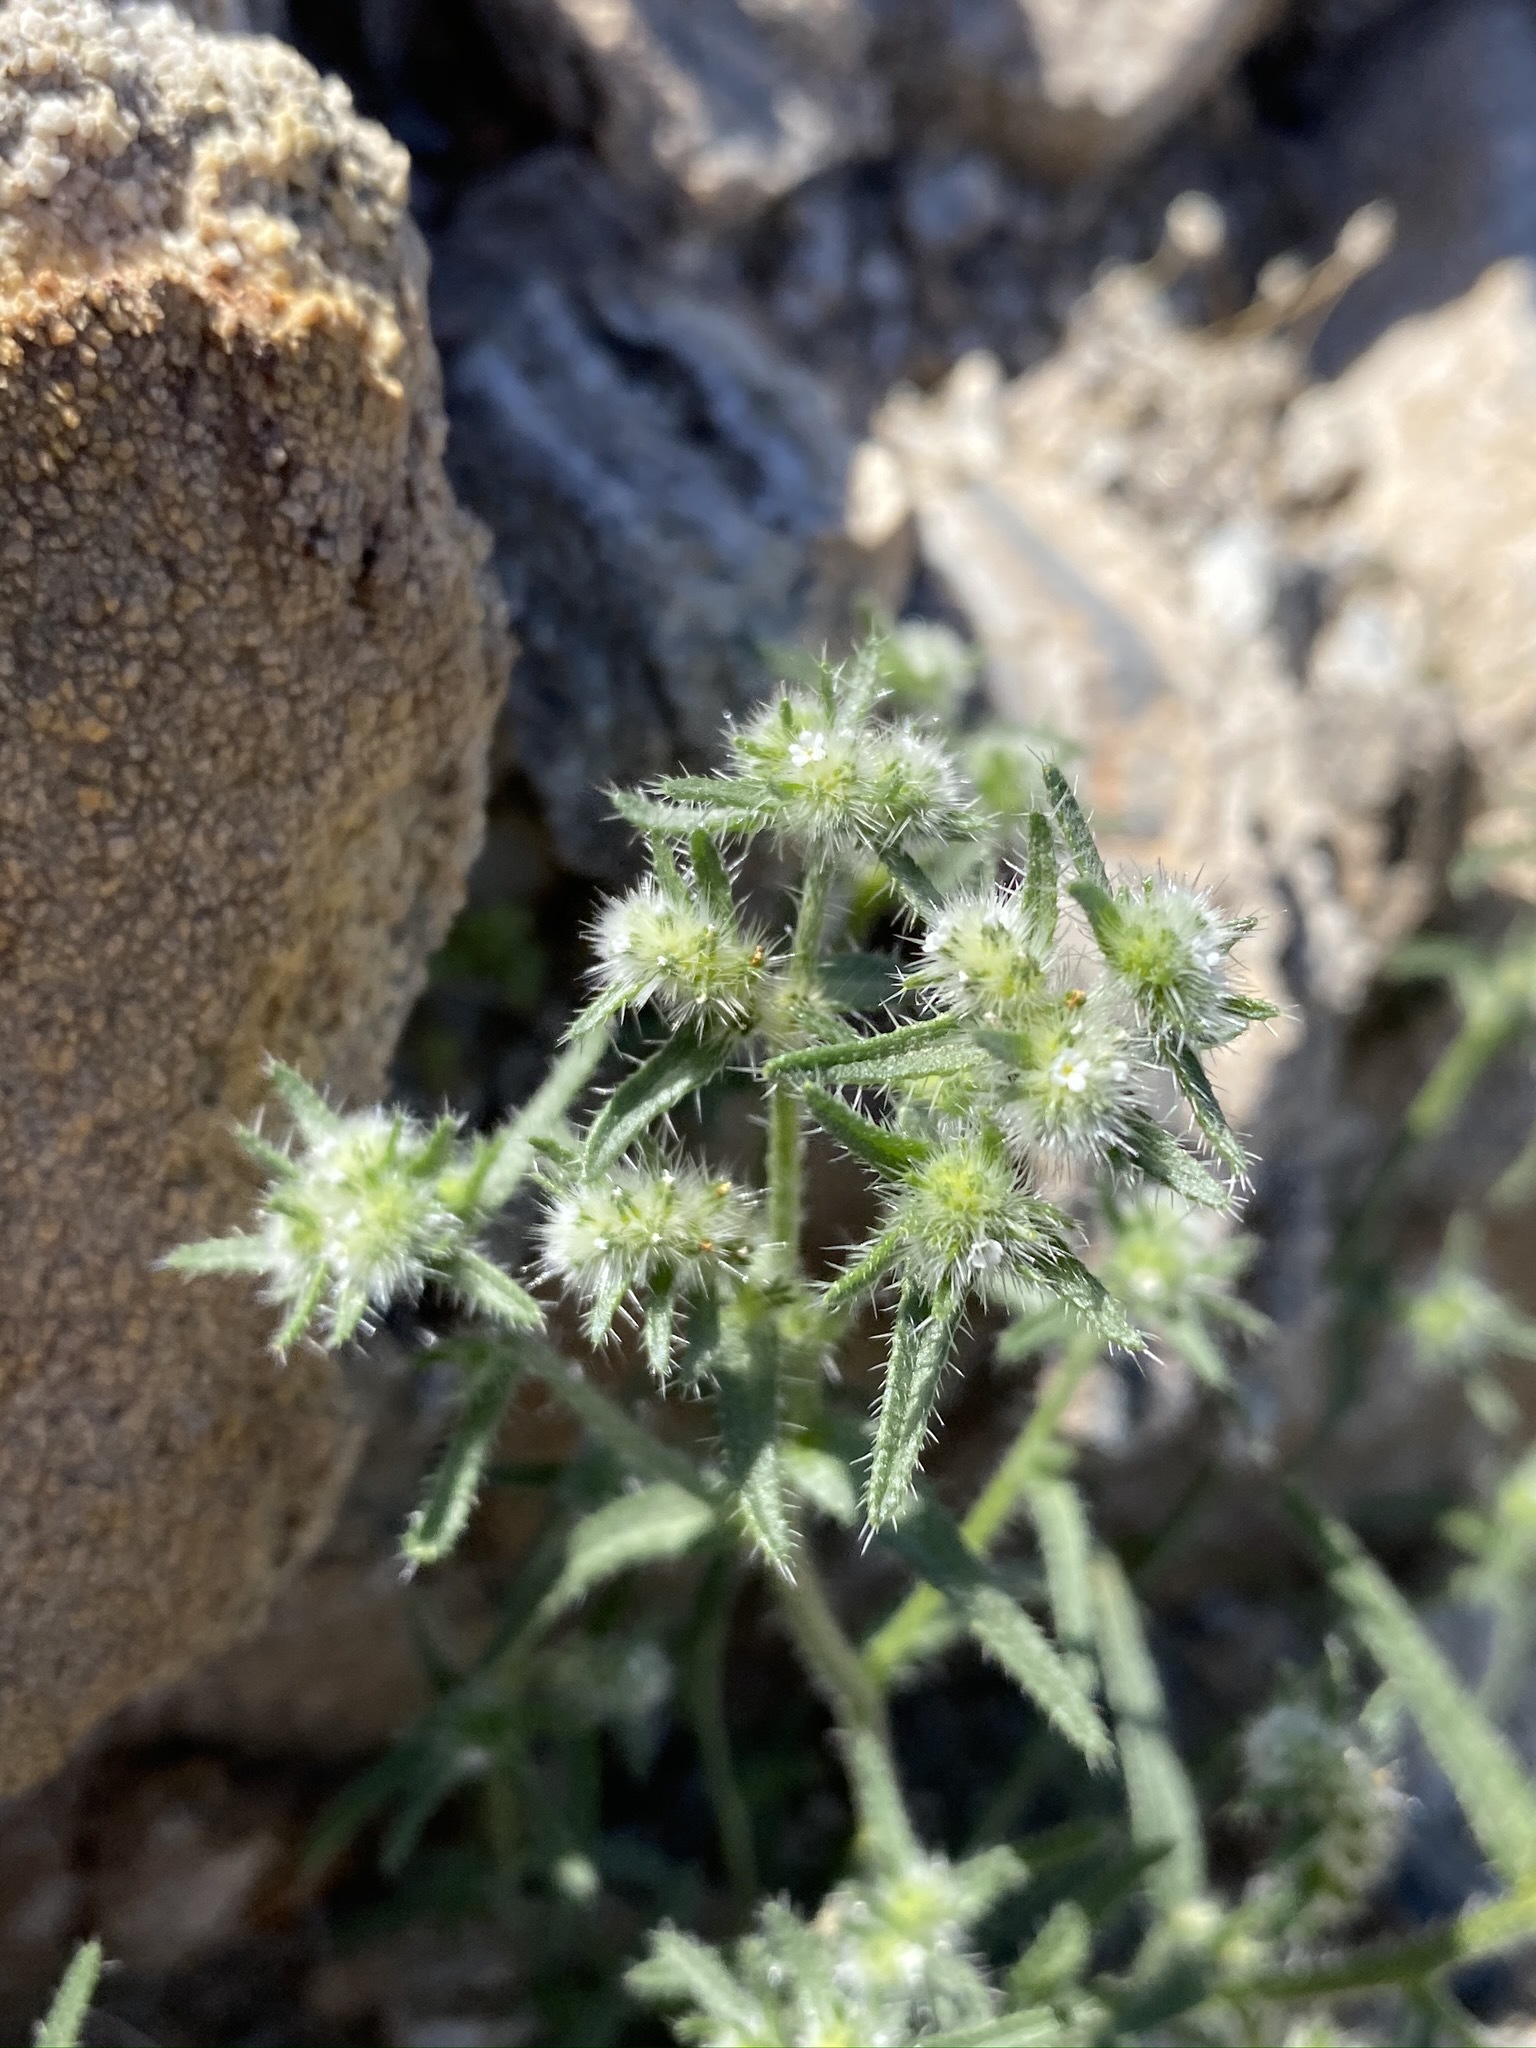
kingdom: Plantae
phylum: Tracheophyta
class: Magnoliopsida
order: Boraginales
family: Boraginaceae
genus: Cryptantha
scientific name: Cryptantha maritima
